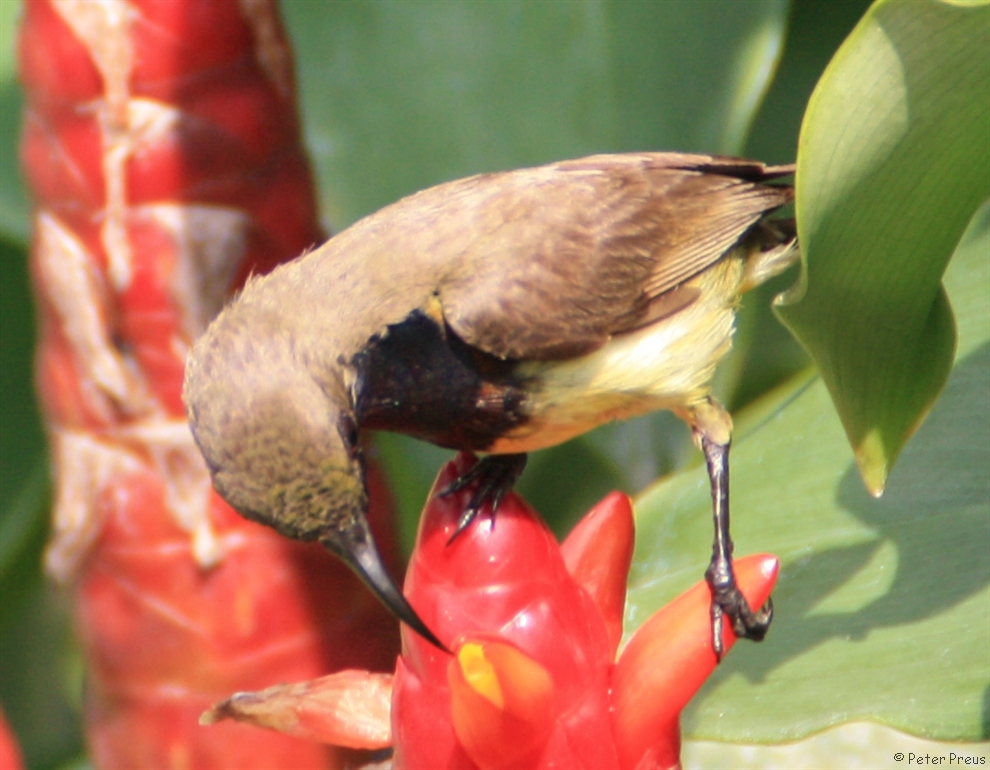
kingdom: Animalia
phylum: Chordata
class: Aves
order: Passeriformes
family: Nectariniidae
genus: Cinnyris
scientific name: Cinnyris
